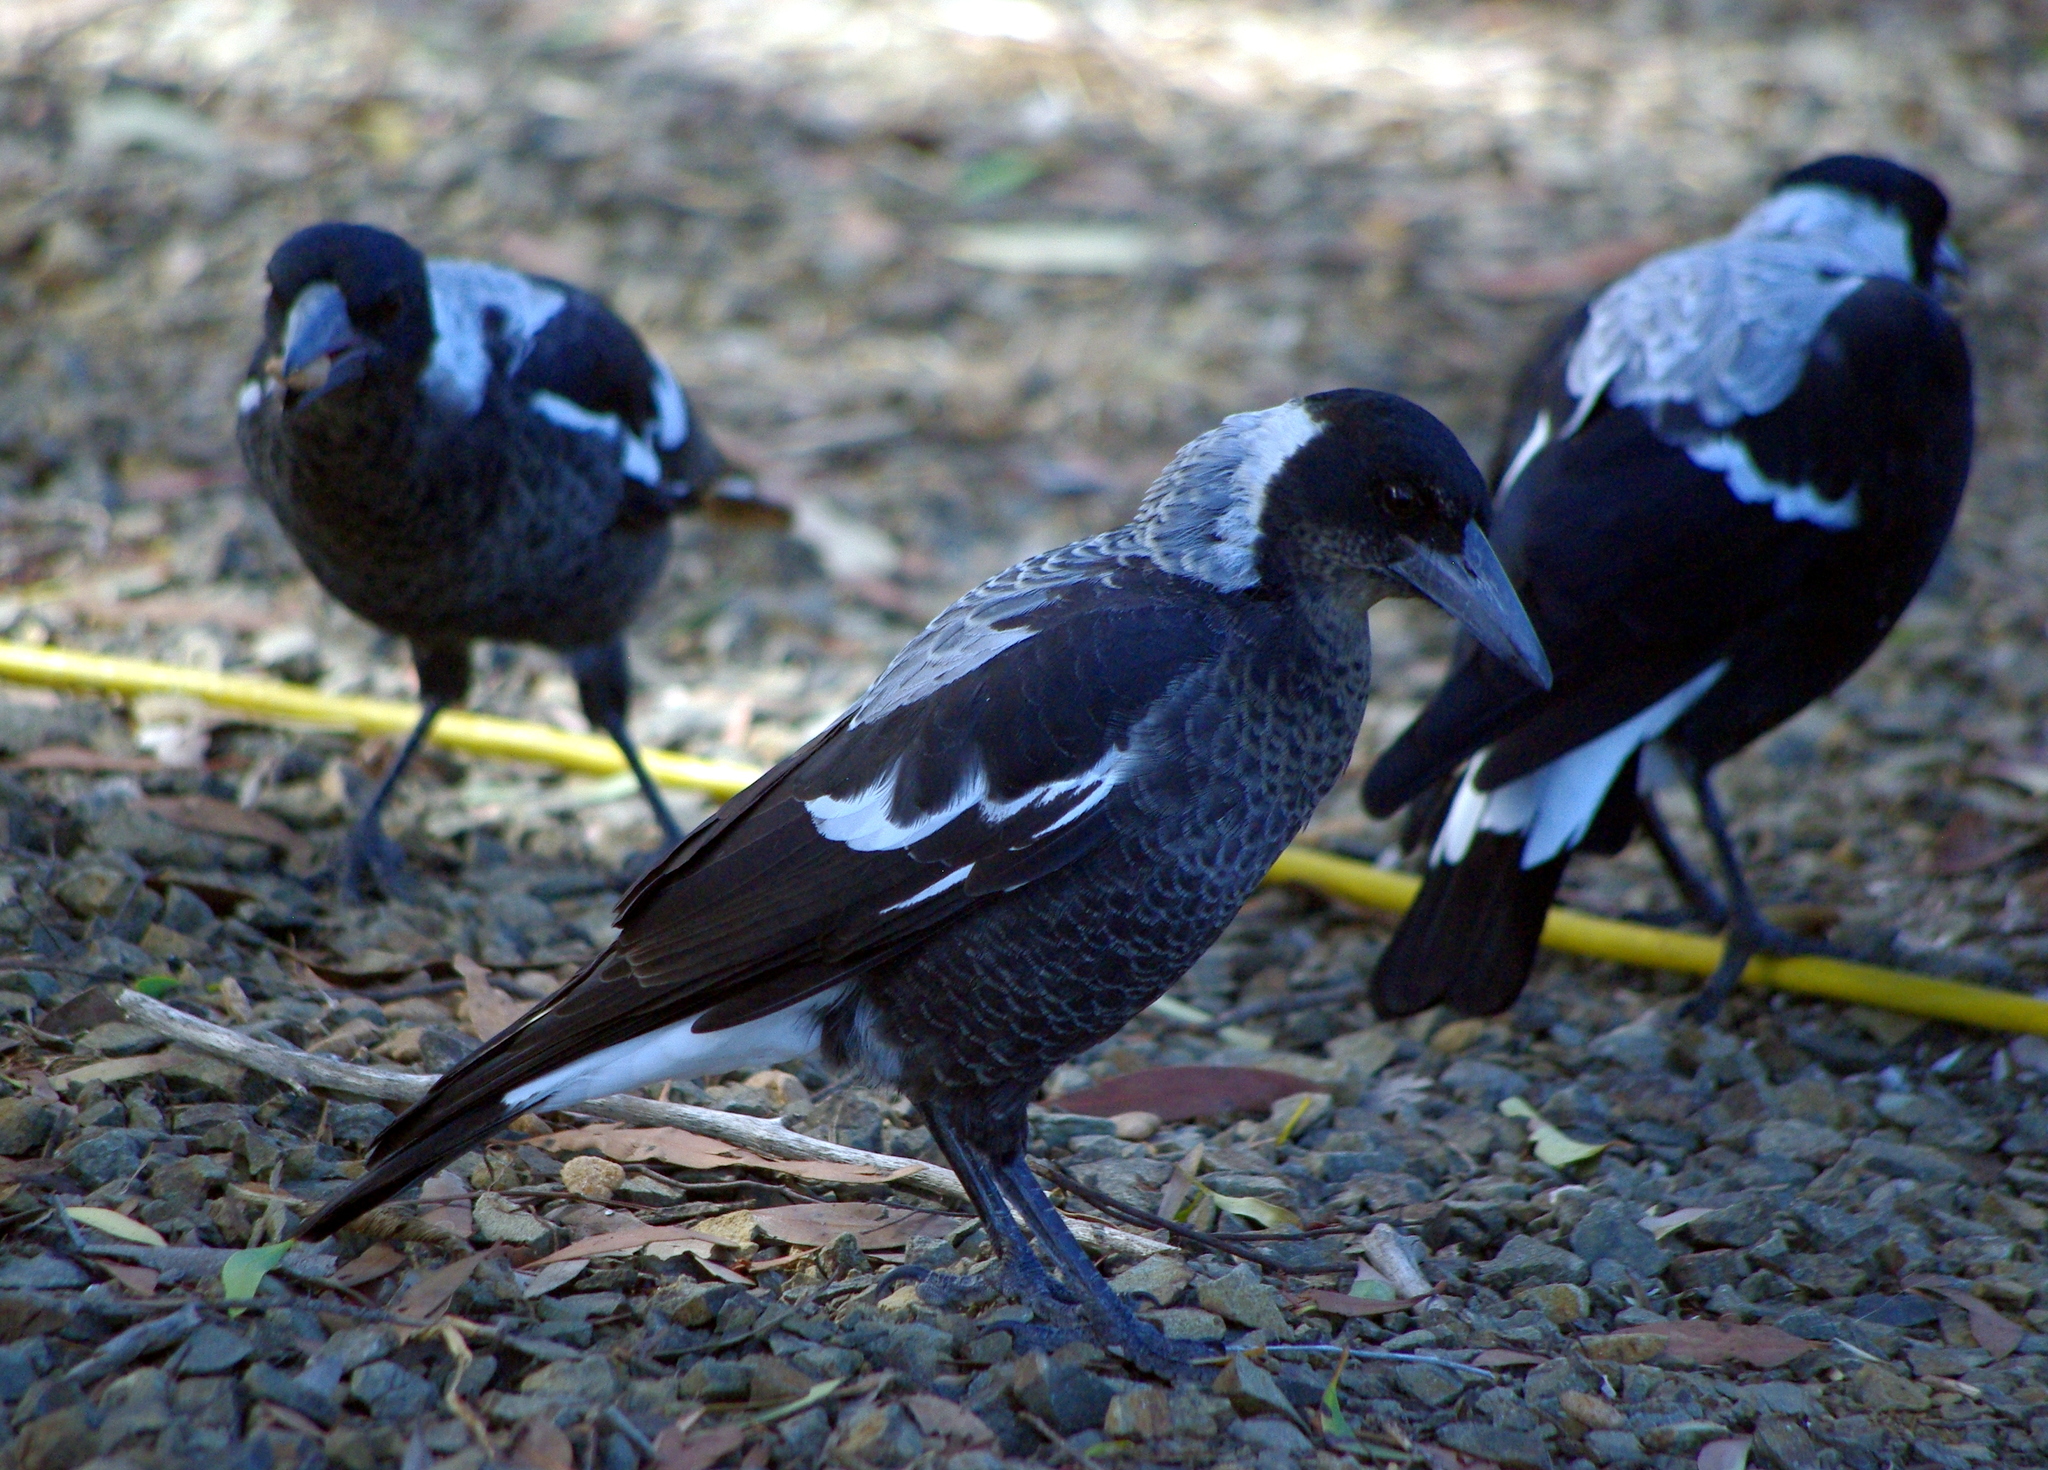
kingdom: Animalia
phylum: Chordata
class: Aves
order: Passeriformes
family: Cracticidae
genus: Gymnorhina
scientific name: Gymnorhina tibicen
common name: Australian magpie
